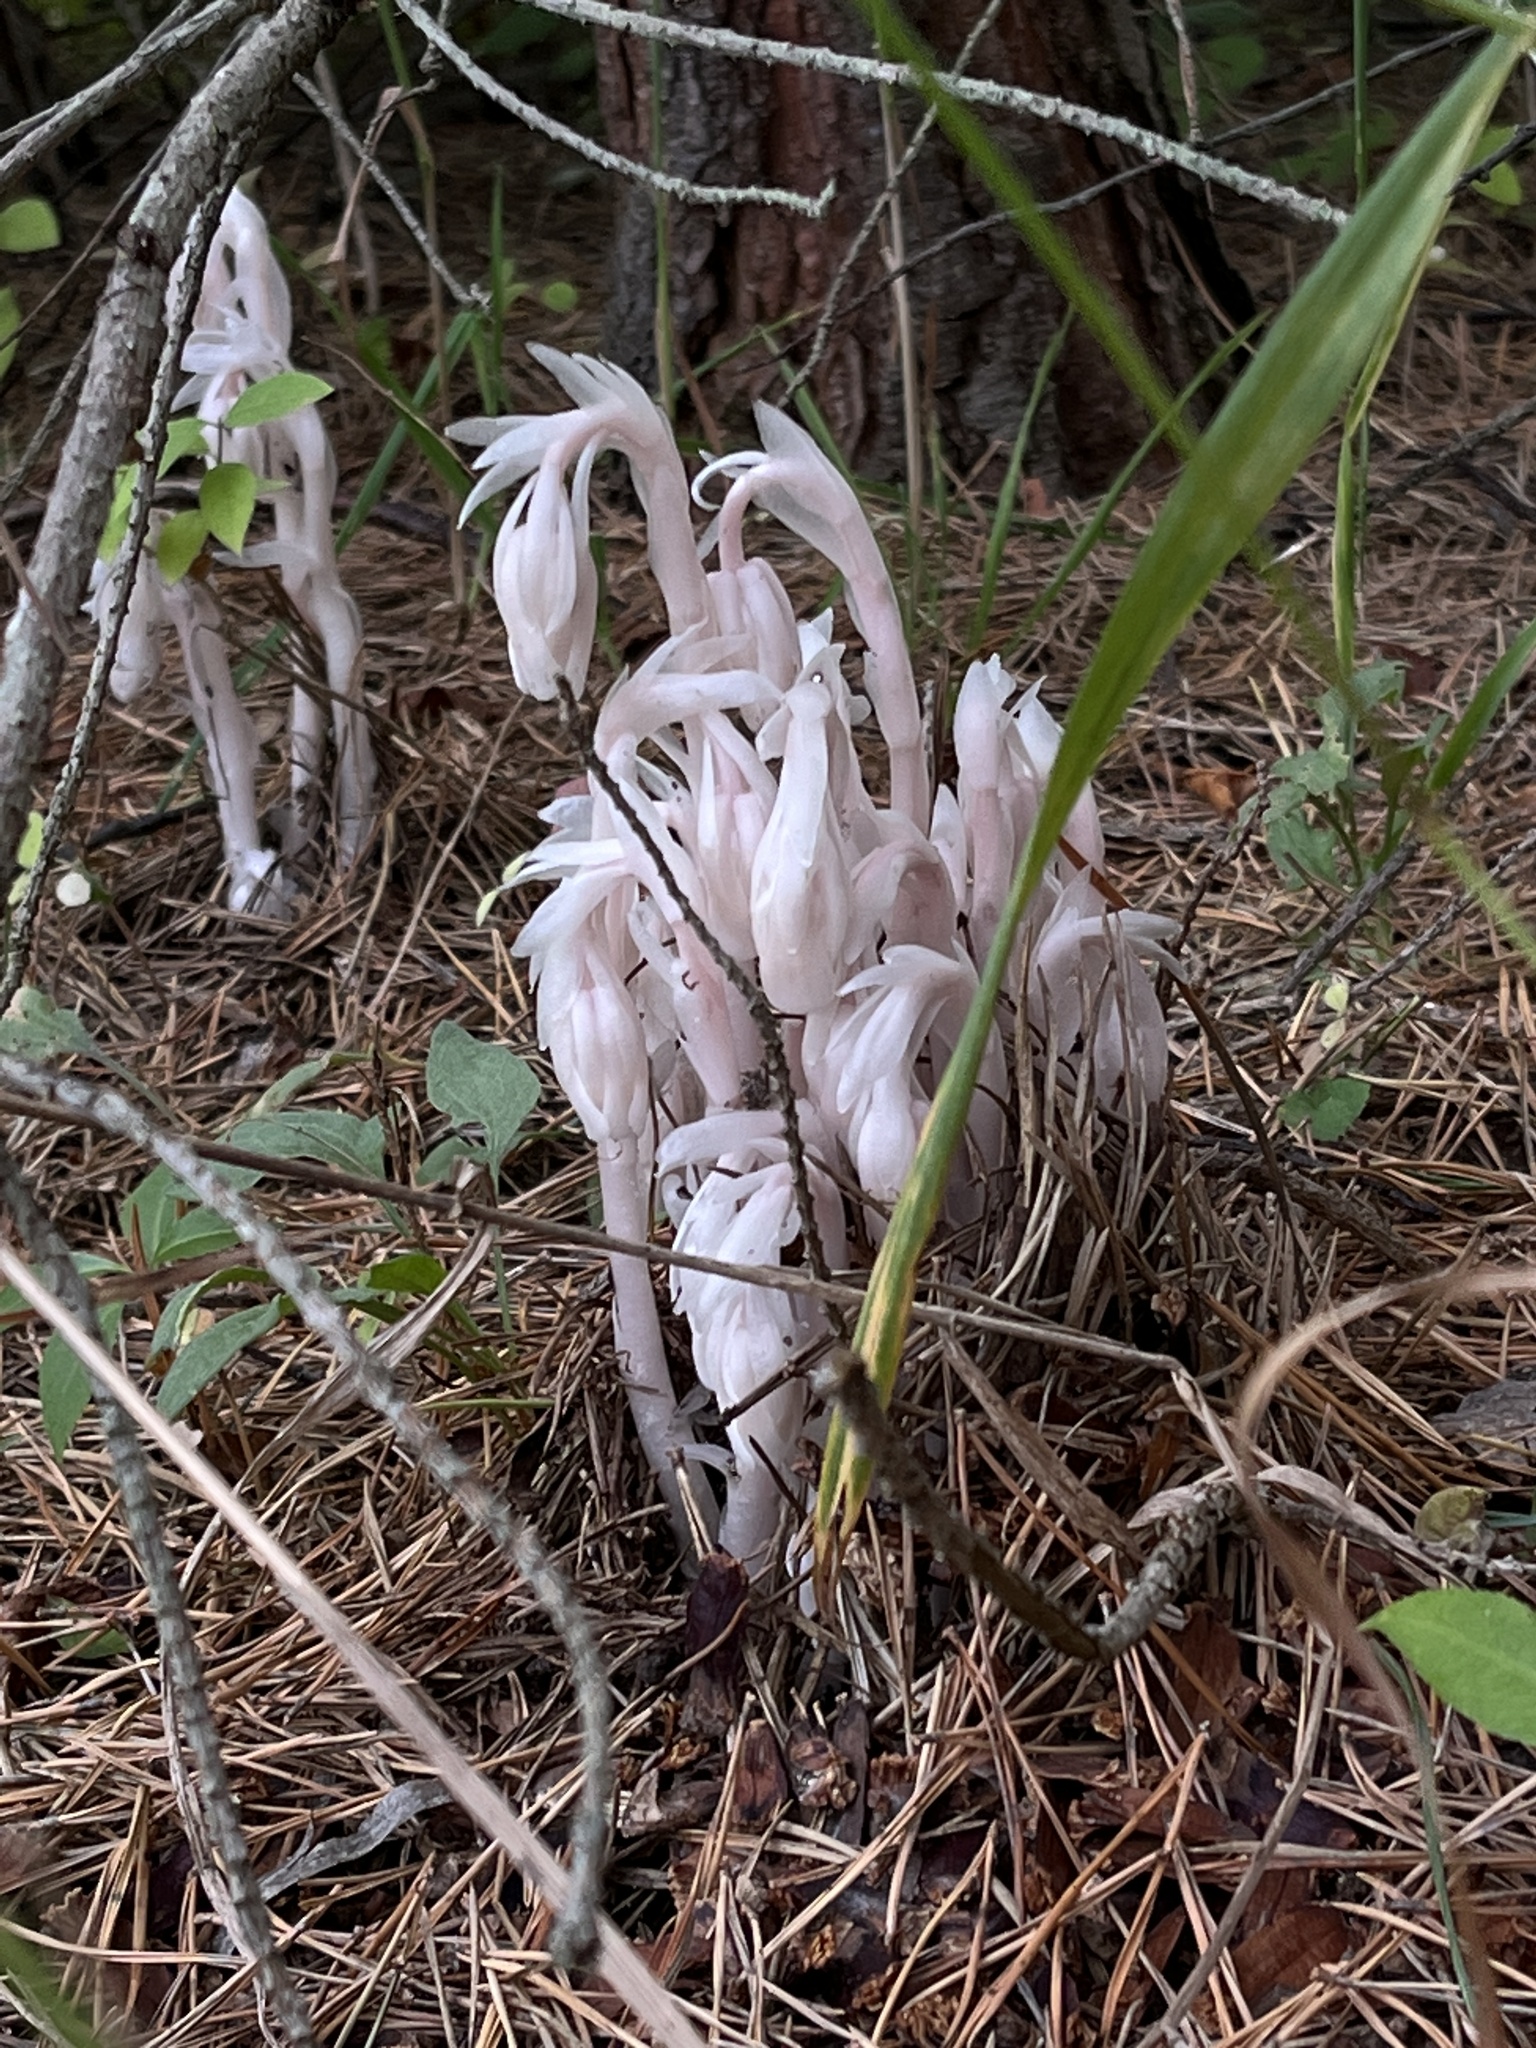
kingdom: Plantae
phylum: Tracheophyta
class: Magnoliopsida
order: Ericales
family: Ericaceae
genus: Monotropa
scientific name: Monotropa uniflora
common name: Convulsion root
